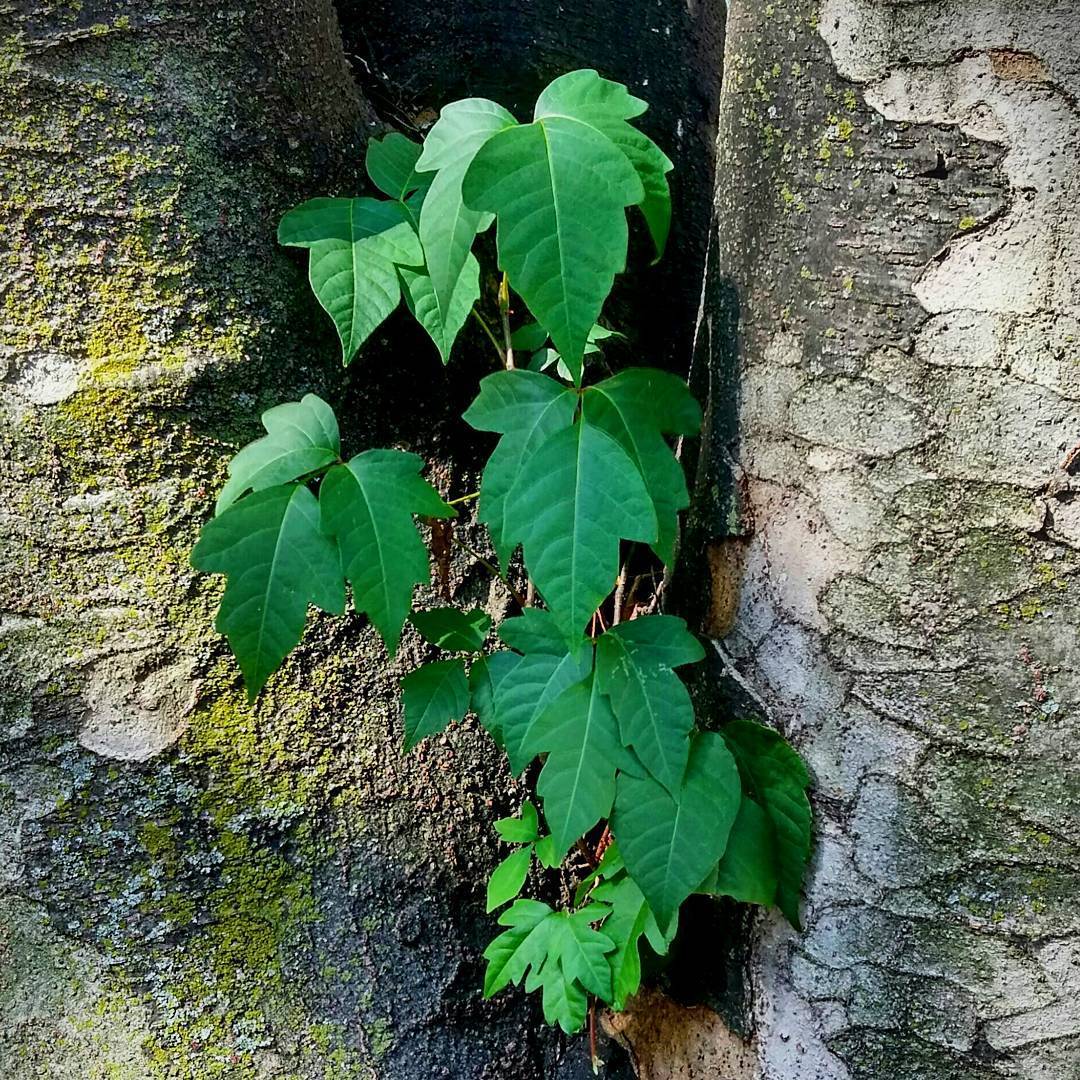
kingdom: Plantae
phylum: Tracheophyta
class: Magnoliopsida
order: Sapindales
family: Anacardiaceae
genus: Toxicodendron
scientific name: Toxicodendron radicans
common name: Poison ivy
